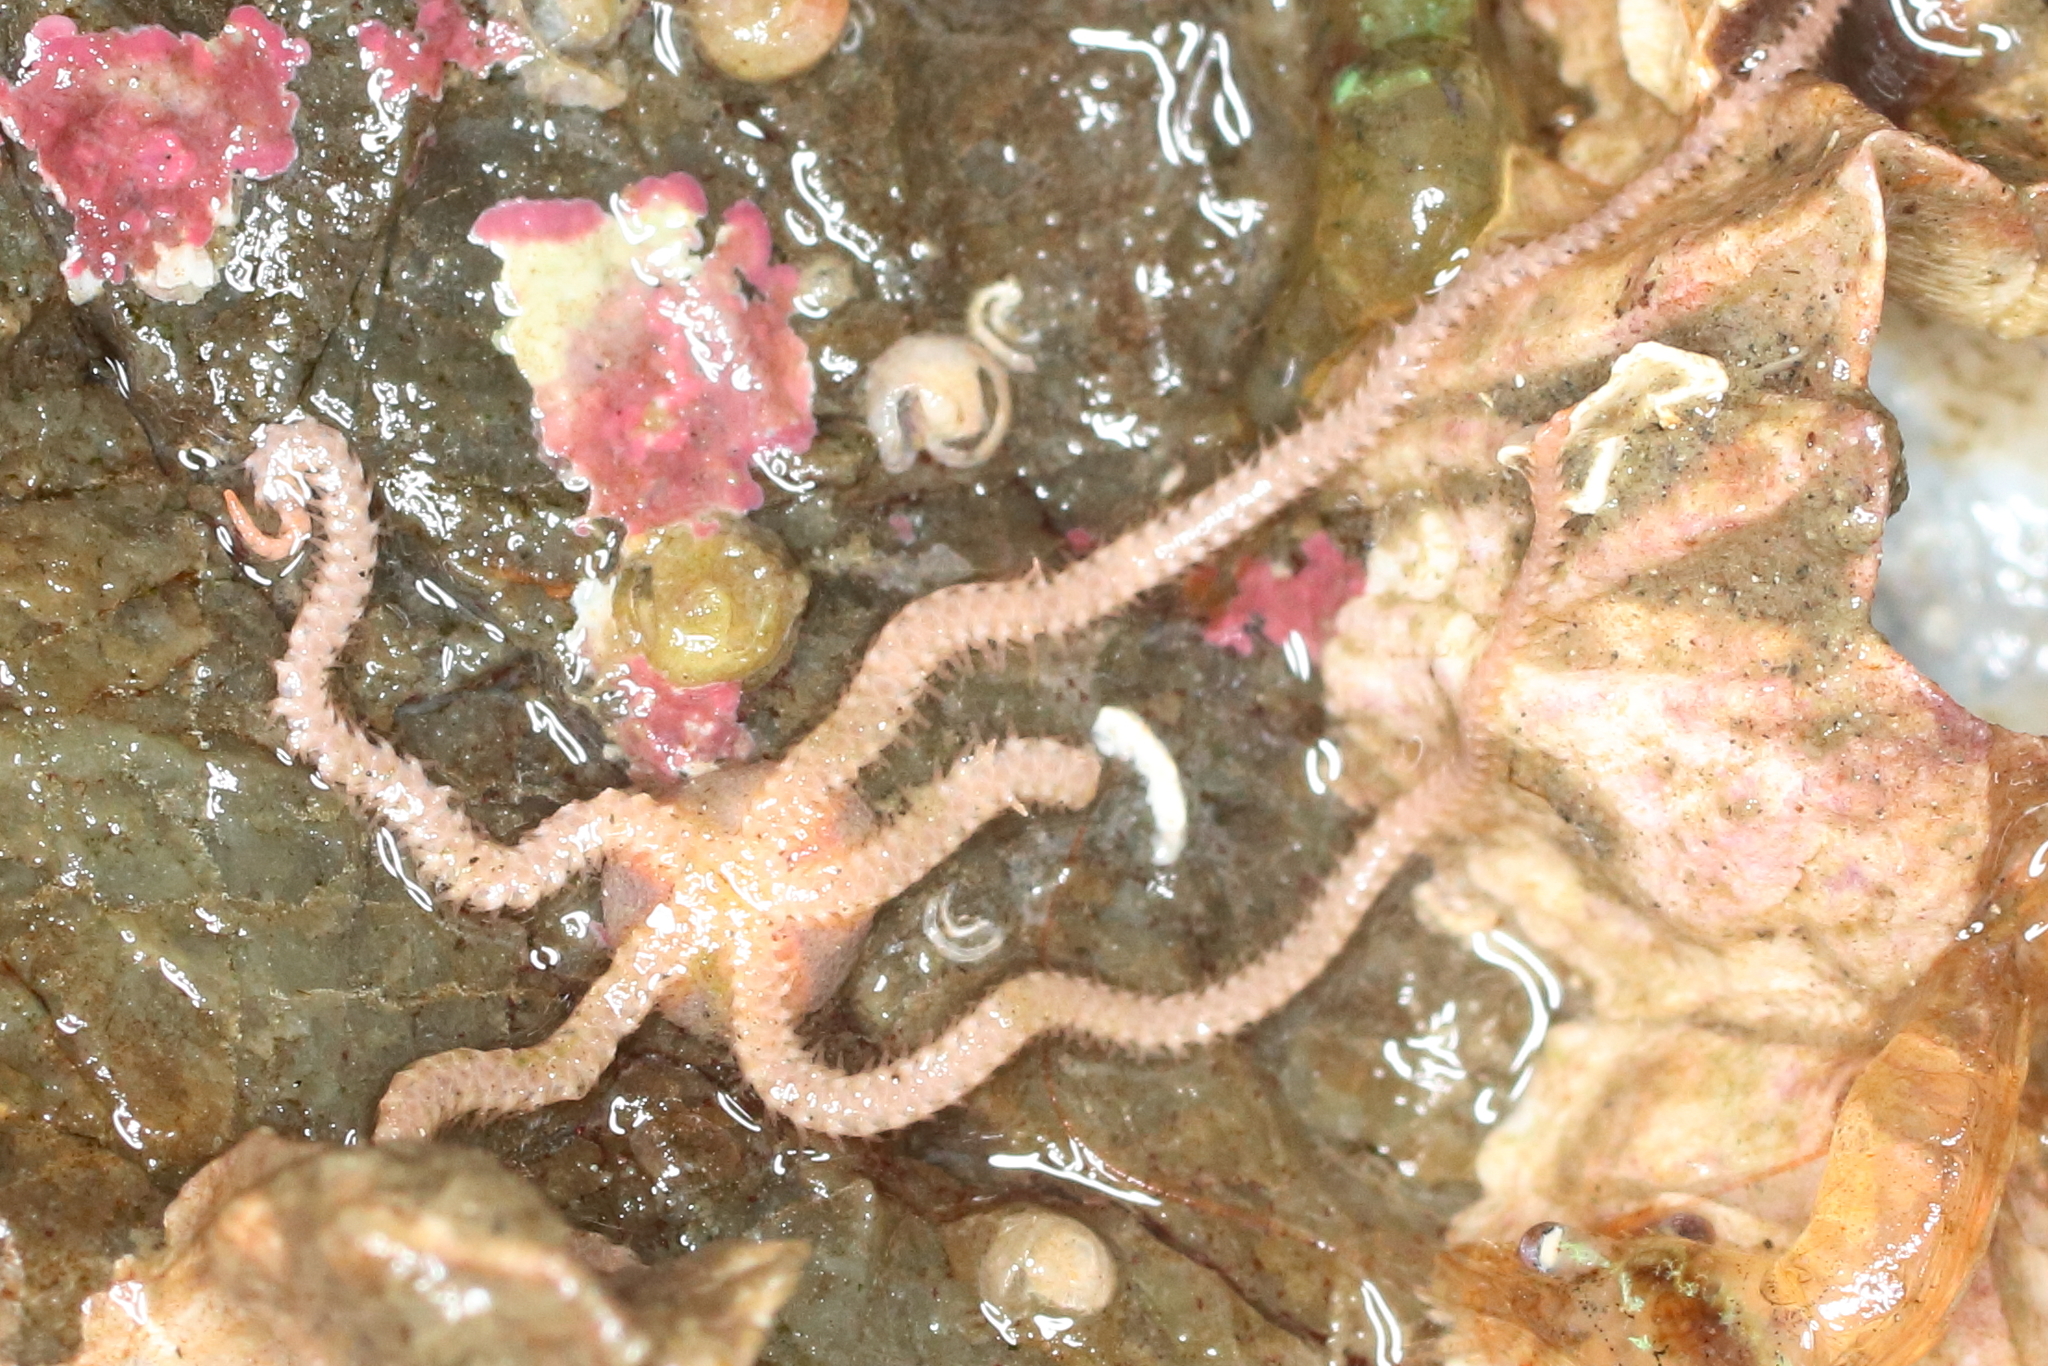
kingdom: Animalia
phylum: Echinodermata
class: Ophiuroidea
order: Amphilepidida
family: Amphiuridae
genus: Amphiodia
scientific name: Amphiodia occidentalis
